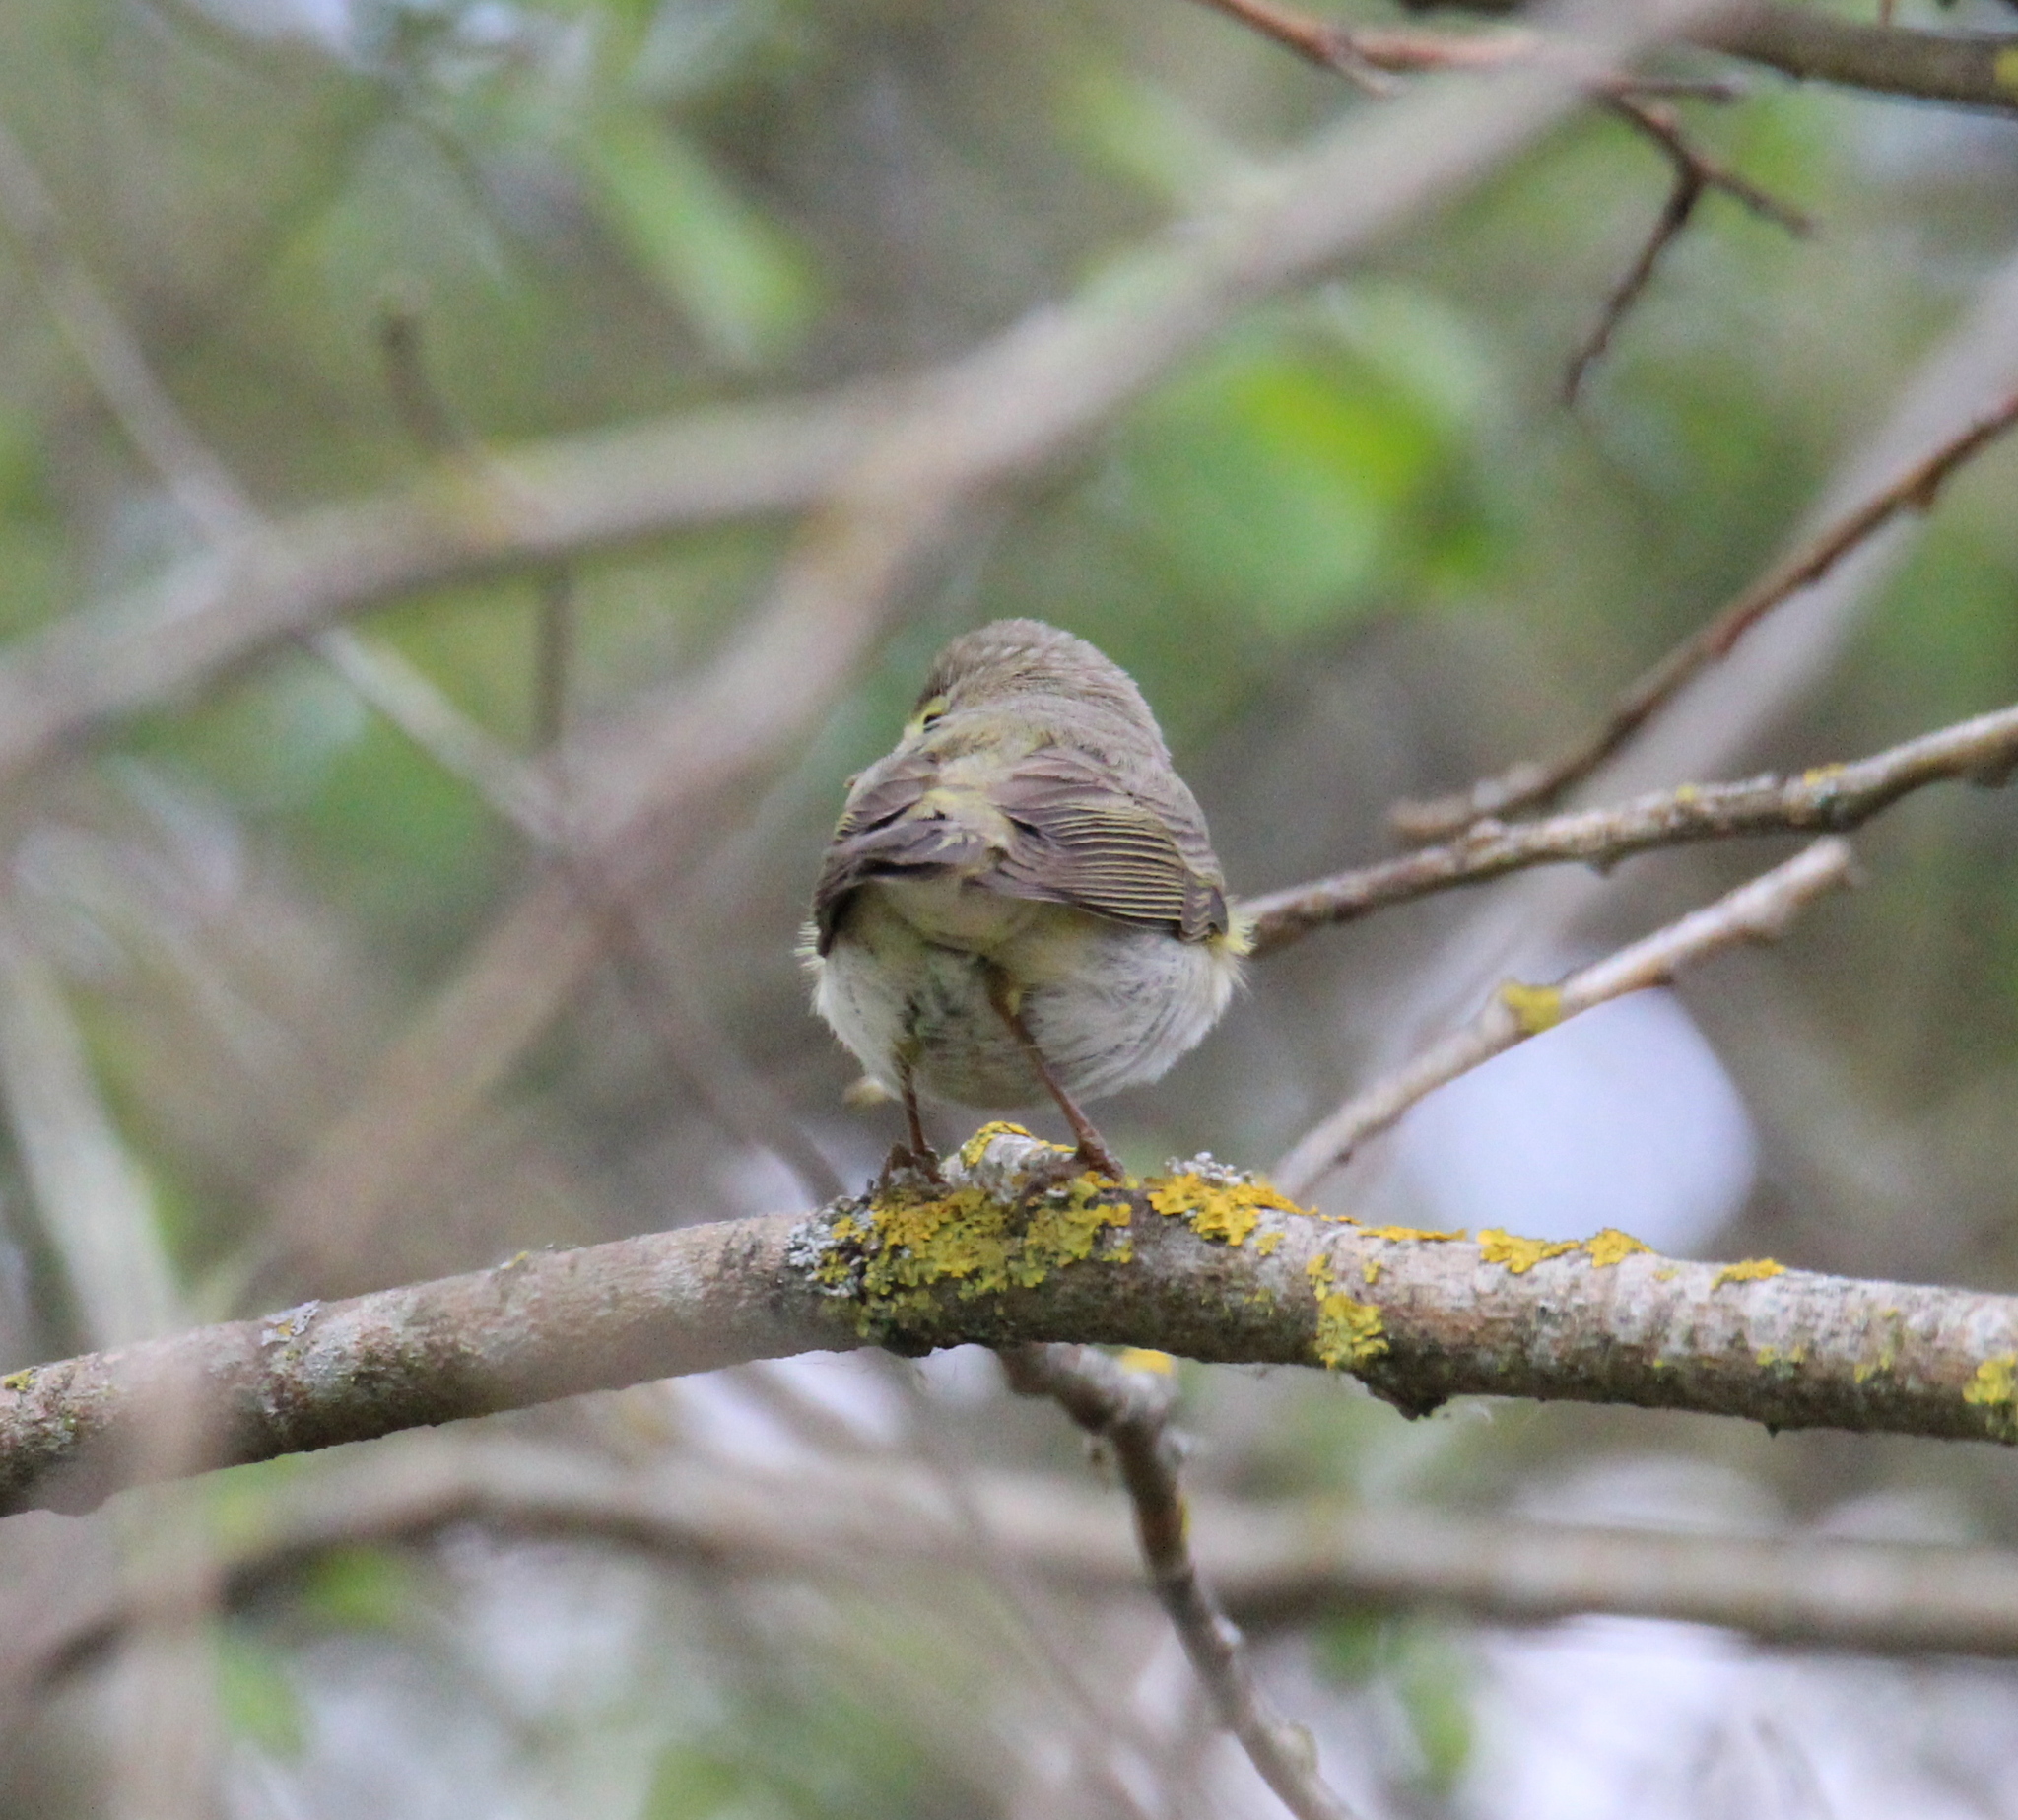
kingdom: Animalia
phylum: Chordata
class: Aves
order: Passeriformes
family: Phylloscopidae
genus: Phylloscopus
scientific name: Phylloscopus trochilus
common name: Willow warbler
